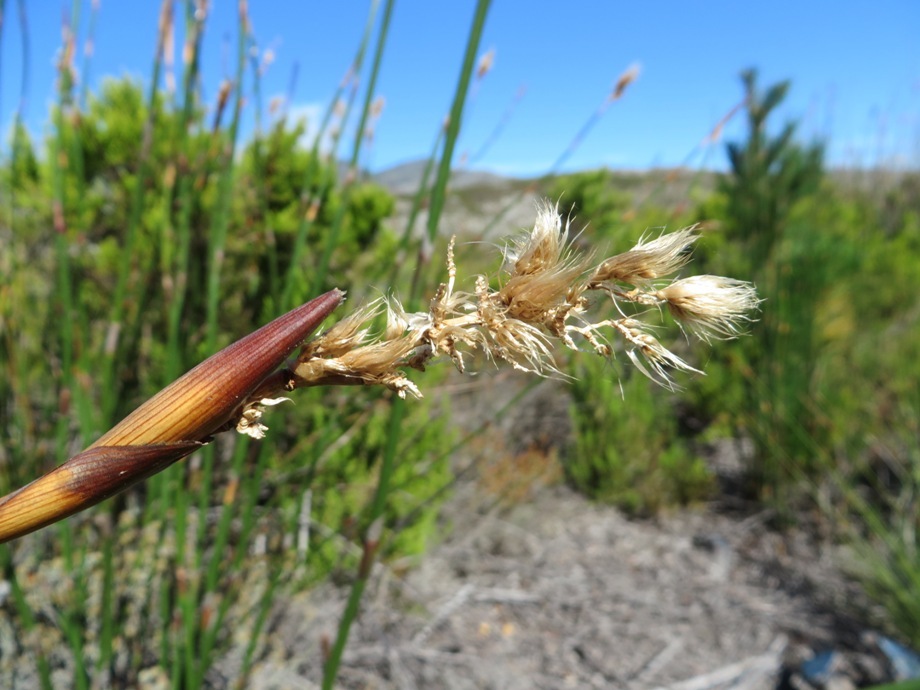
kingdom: Plantae
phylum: Tracheophyta
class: Liliopsida
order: Poales
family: Restionaceae
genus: Ceratocaryum
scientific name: Ceratocaryum persistens
